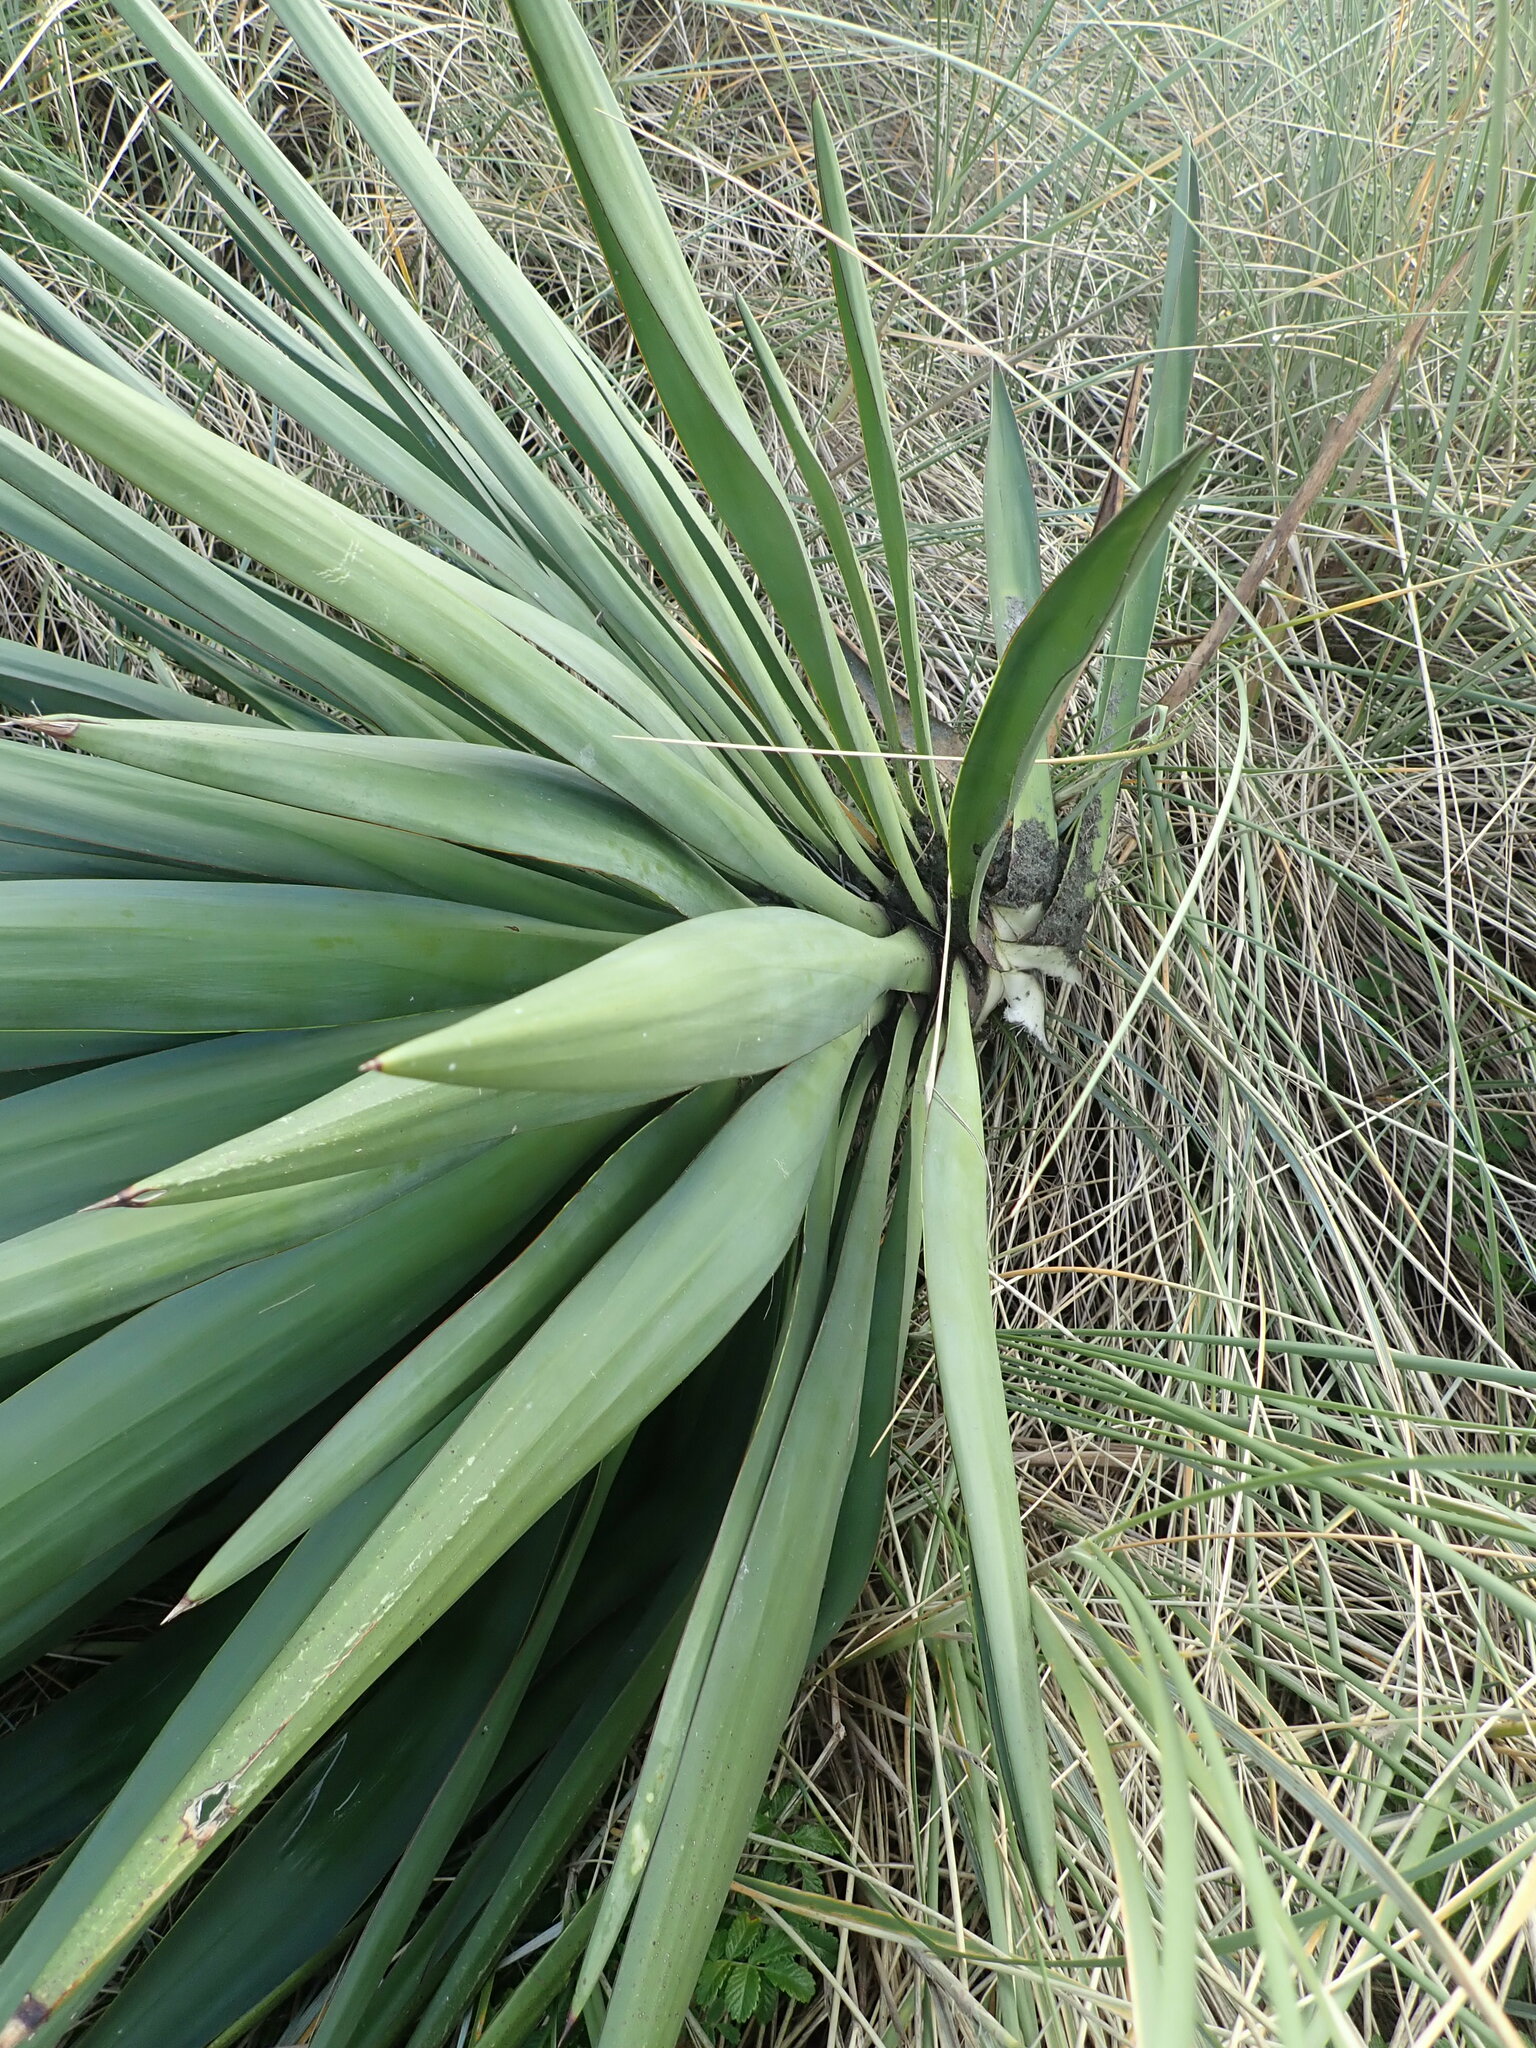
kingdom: Plantae
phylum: Tracheophyta
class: Liliopsida
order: Asparagales
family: Asparagaceae
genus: Yucca
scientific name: Yucca gloriosa
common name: Spanish-dagger
